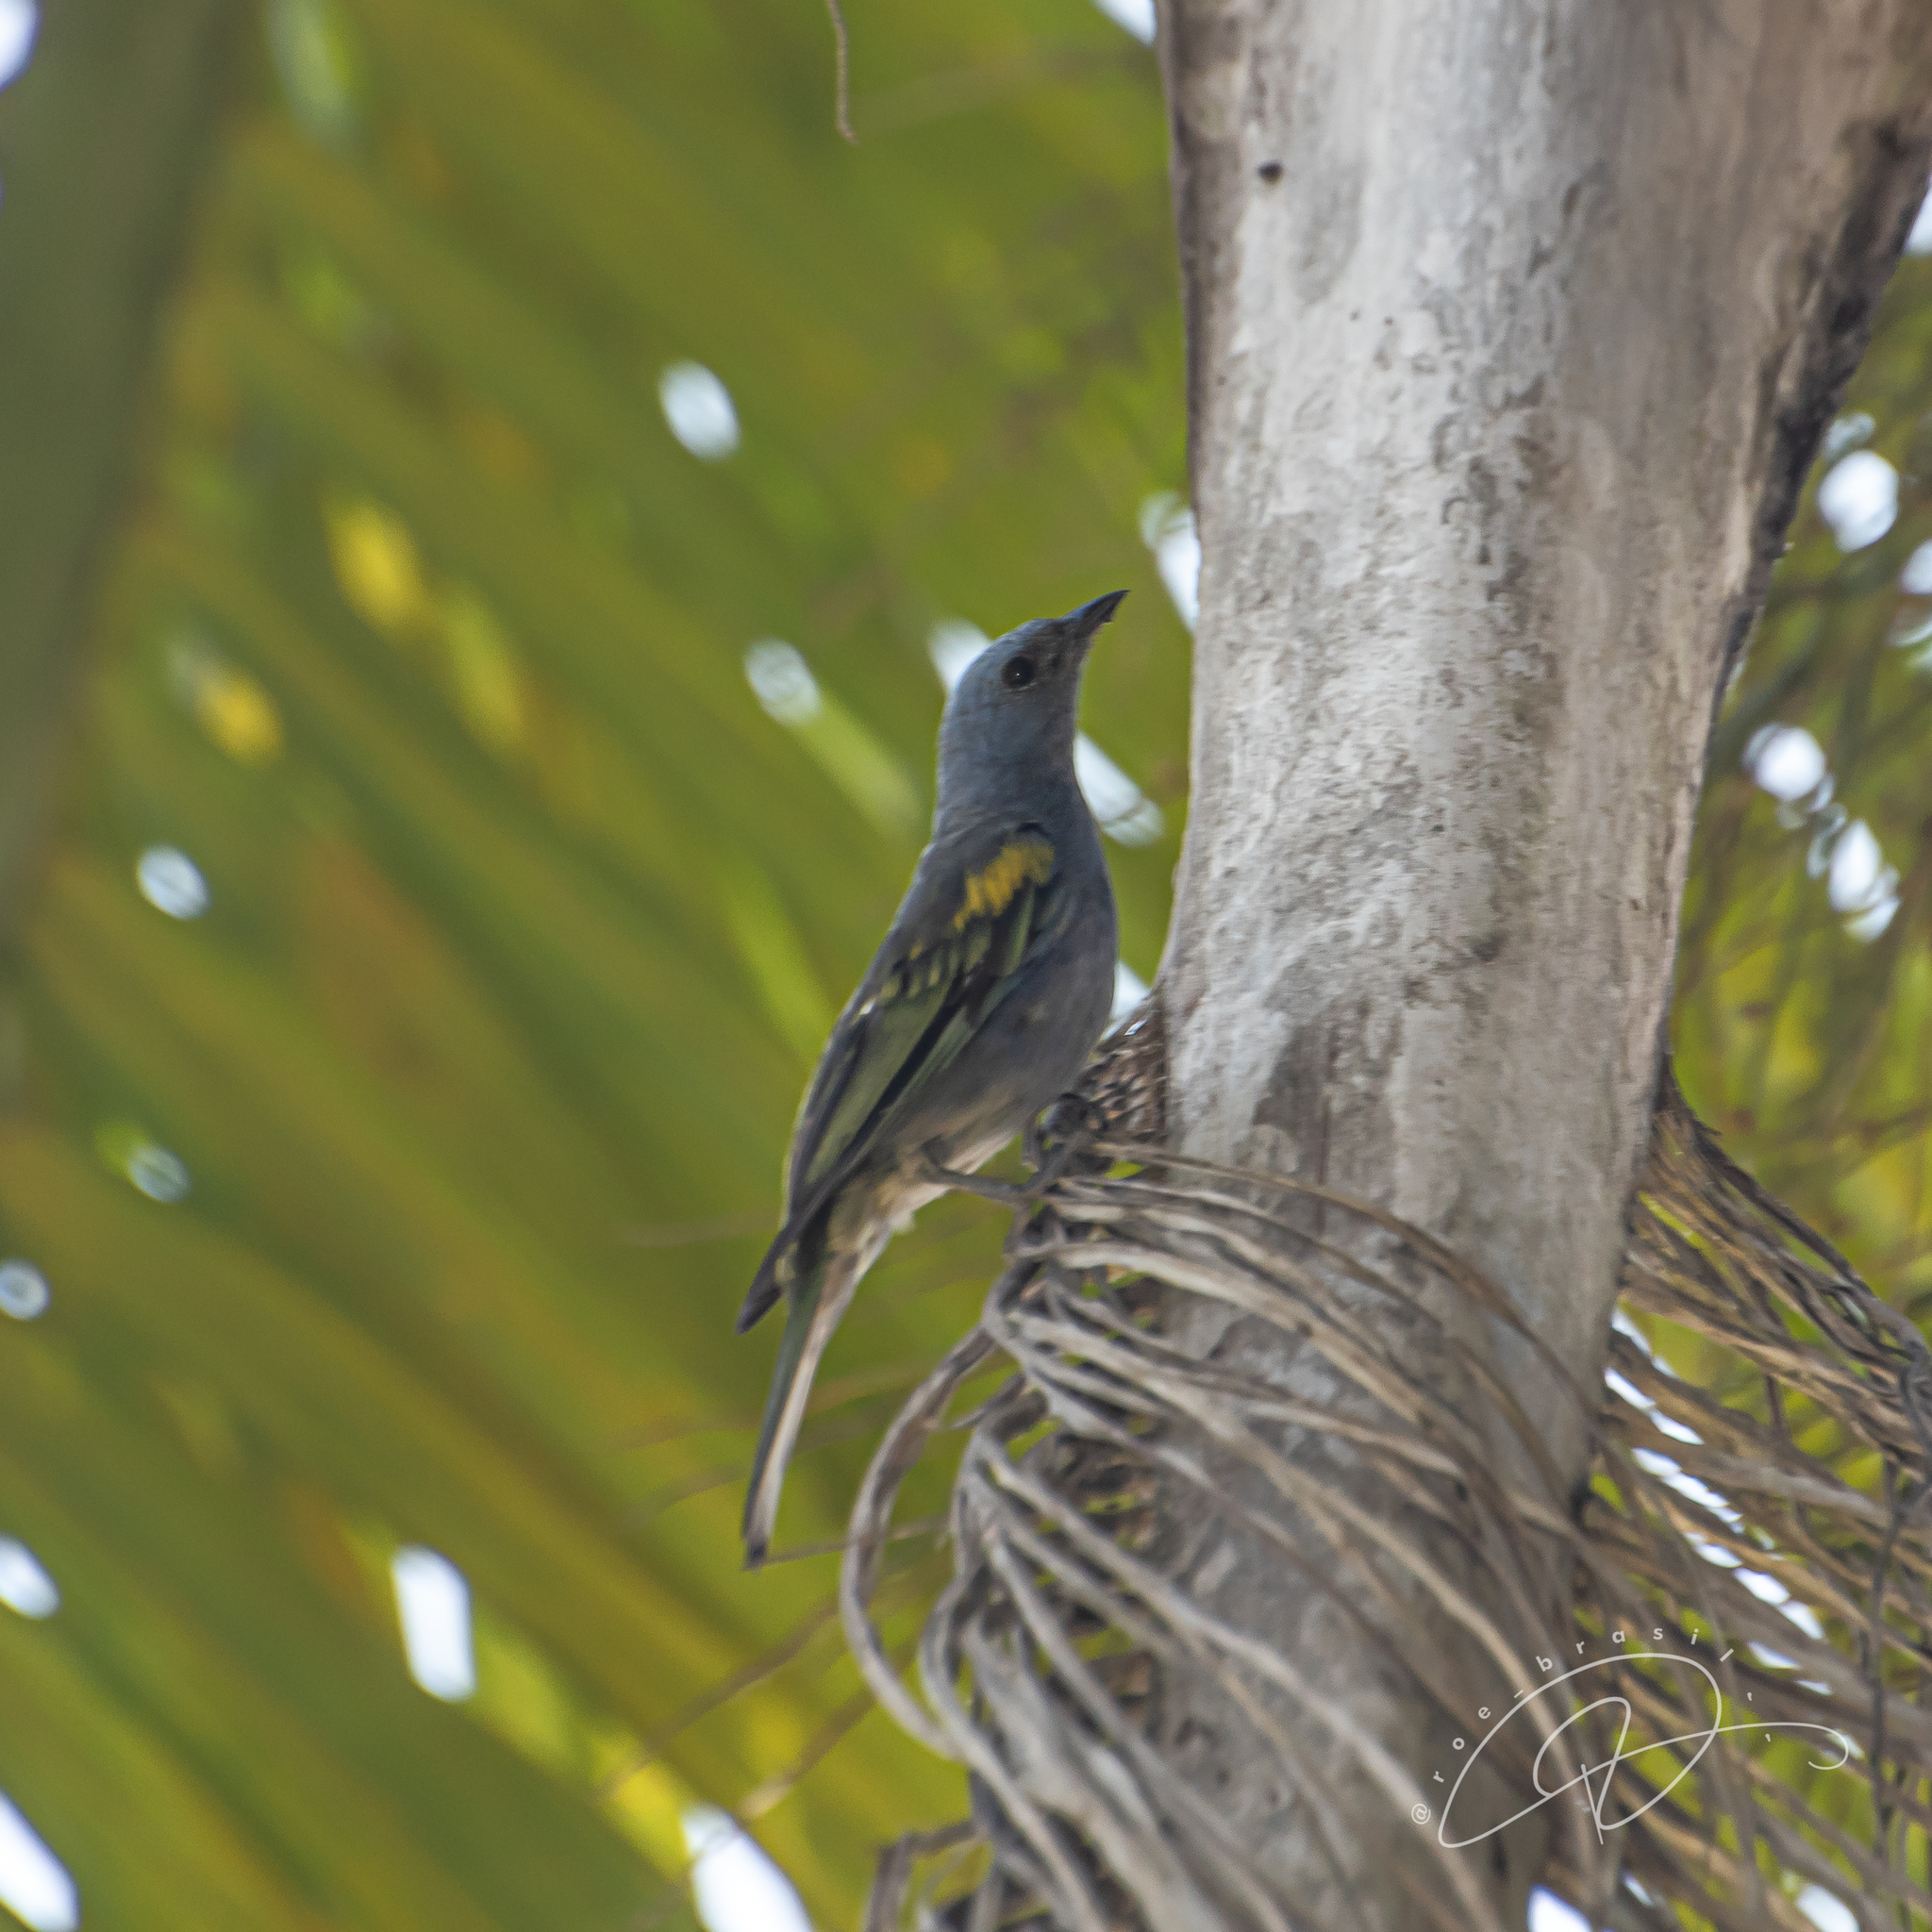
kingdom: Animalia
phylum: Chordata
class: Aves
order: Passeriformes
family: Thraupidae
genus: Thraupis
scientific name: Thraupis ornata
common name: Golden-chevroned tanager
